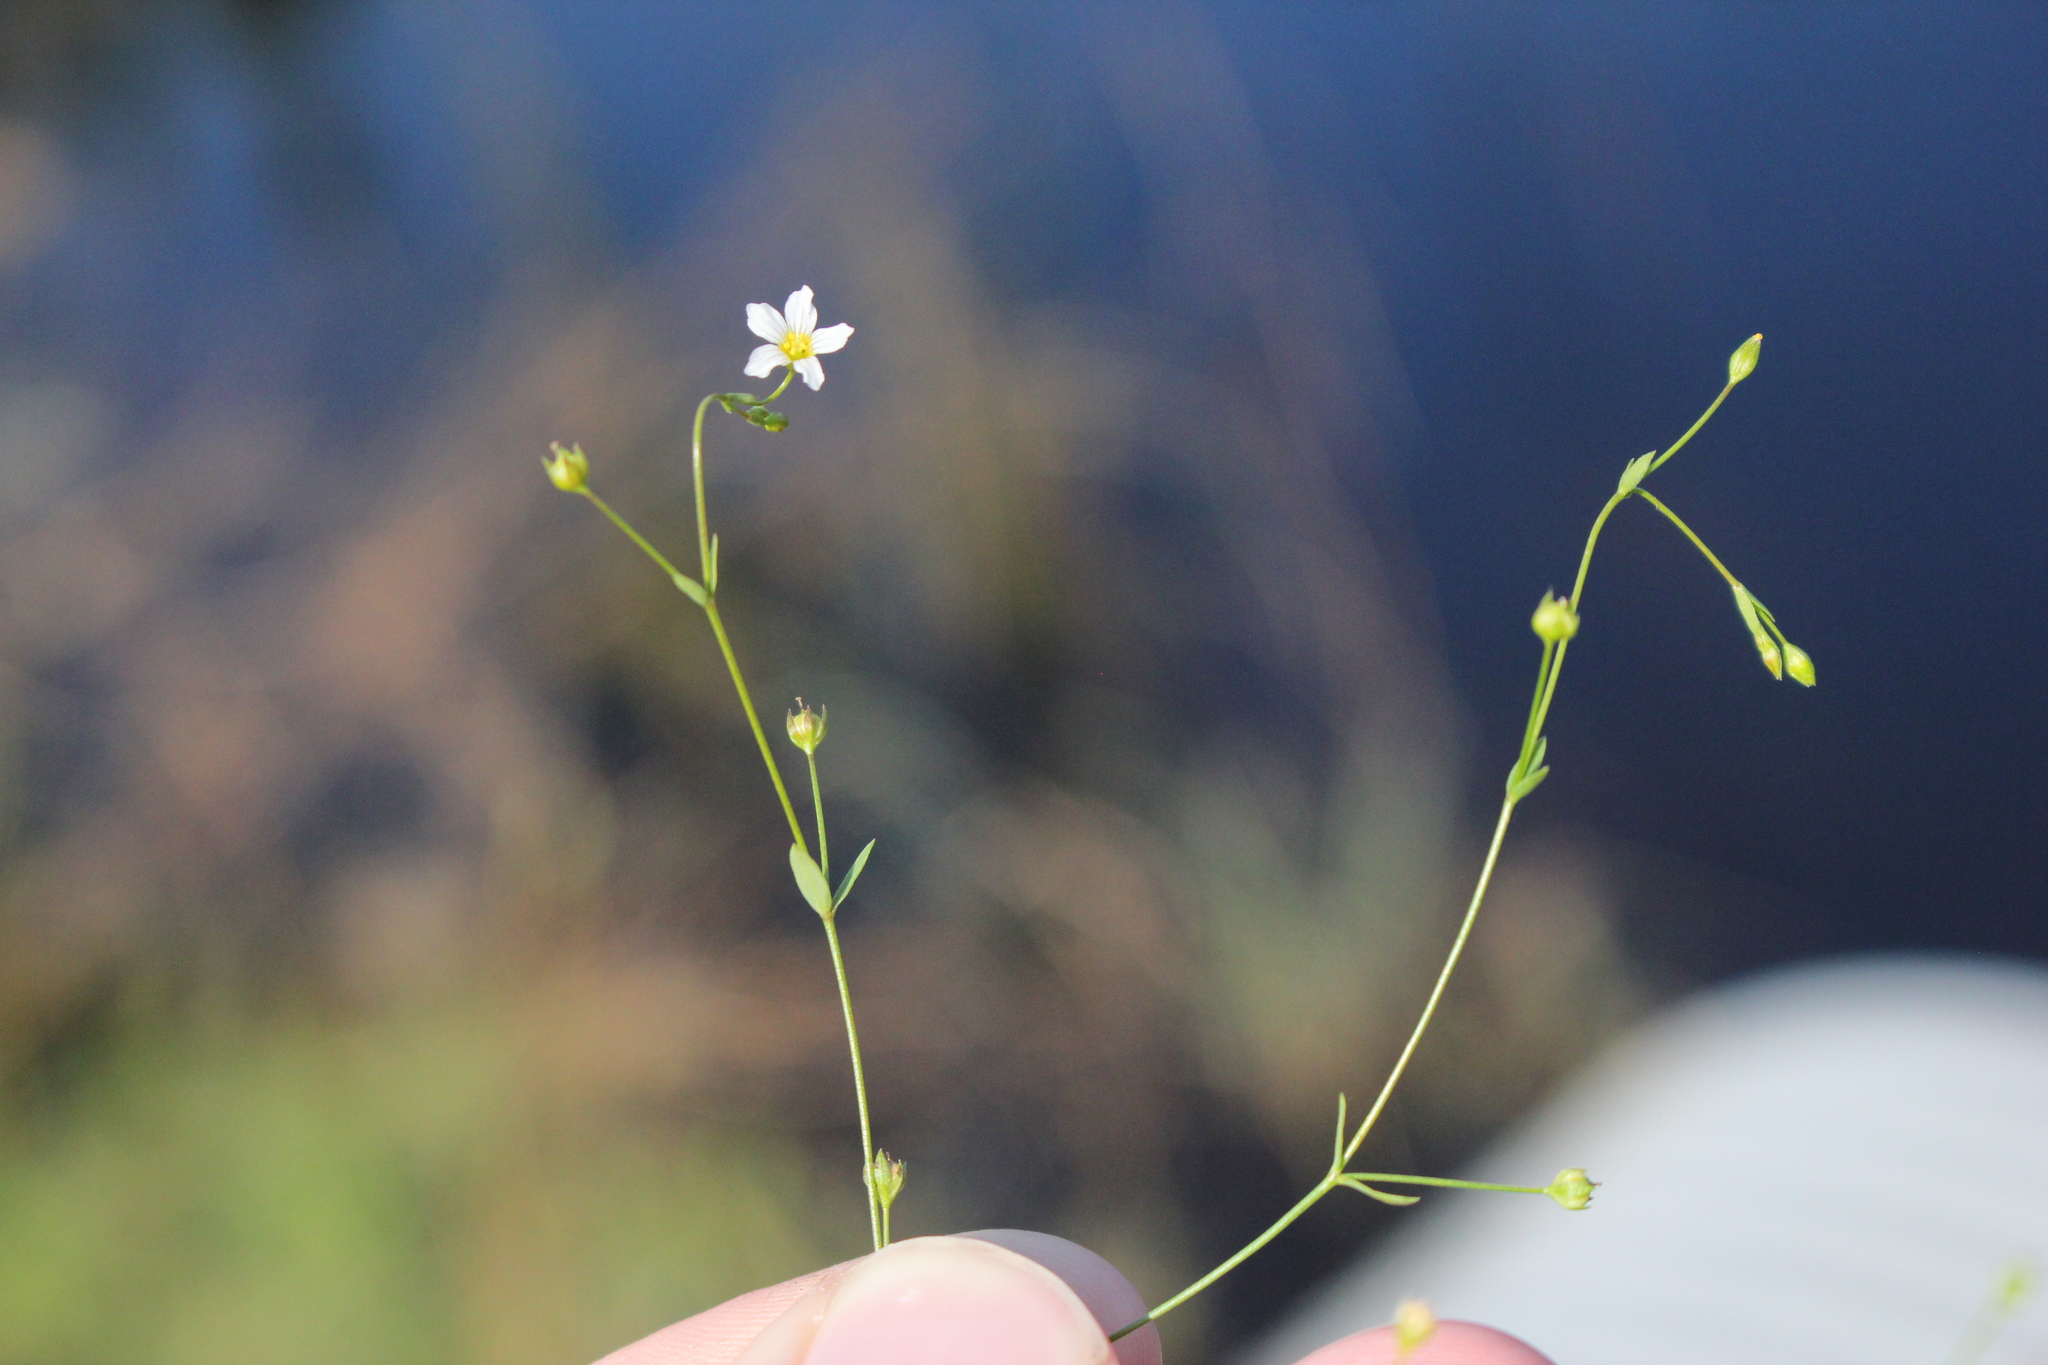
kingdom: Plantae
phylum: Tracheophyta
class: Magnoliopsida
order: Malpighiales
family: Linaceae
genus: Linum
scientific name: Linum catharticum
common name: Fairy flax
